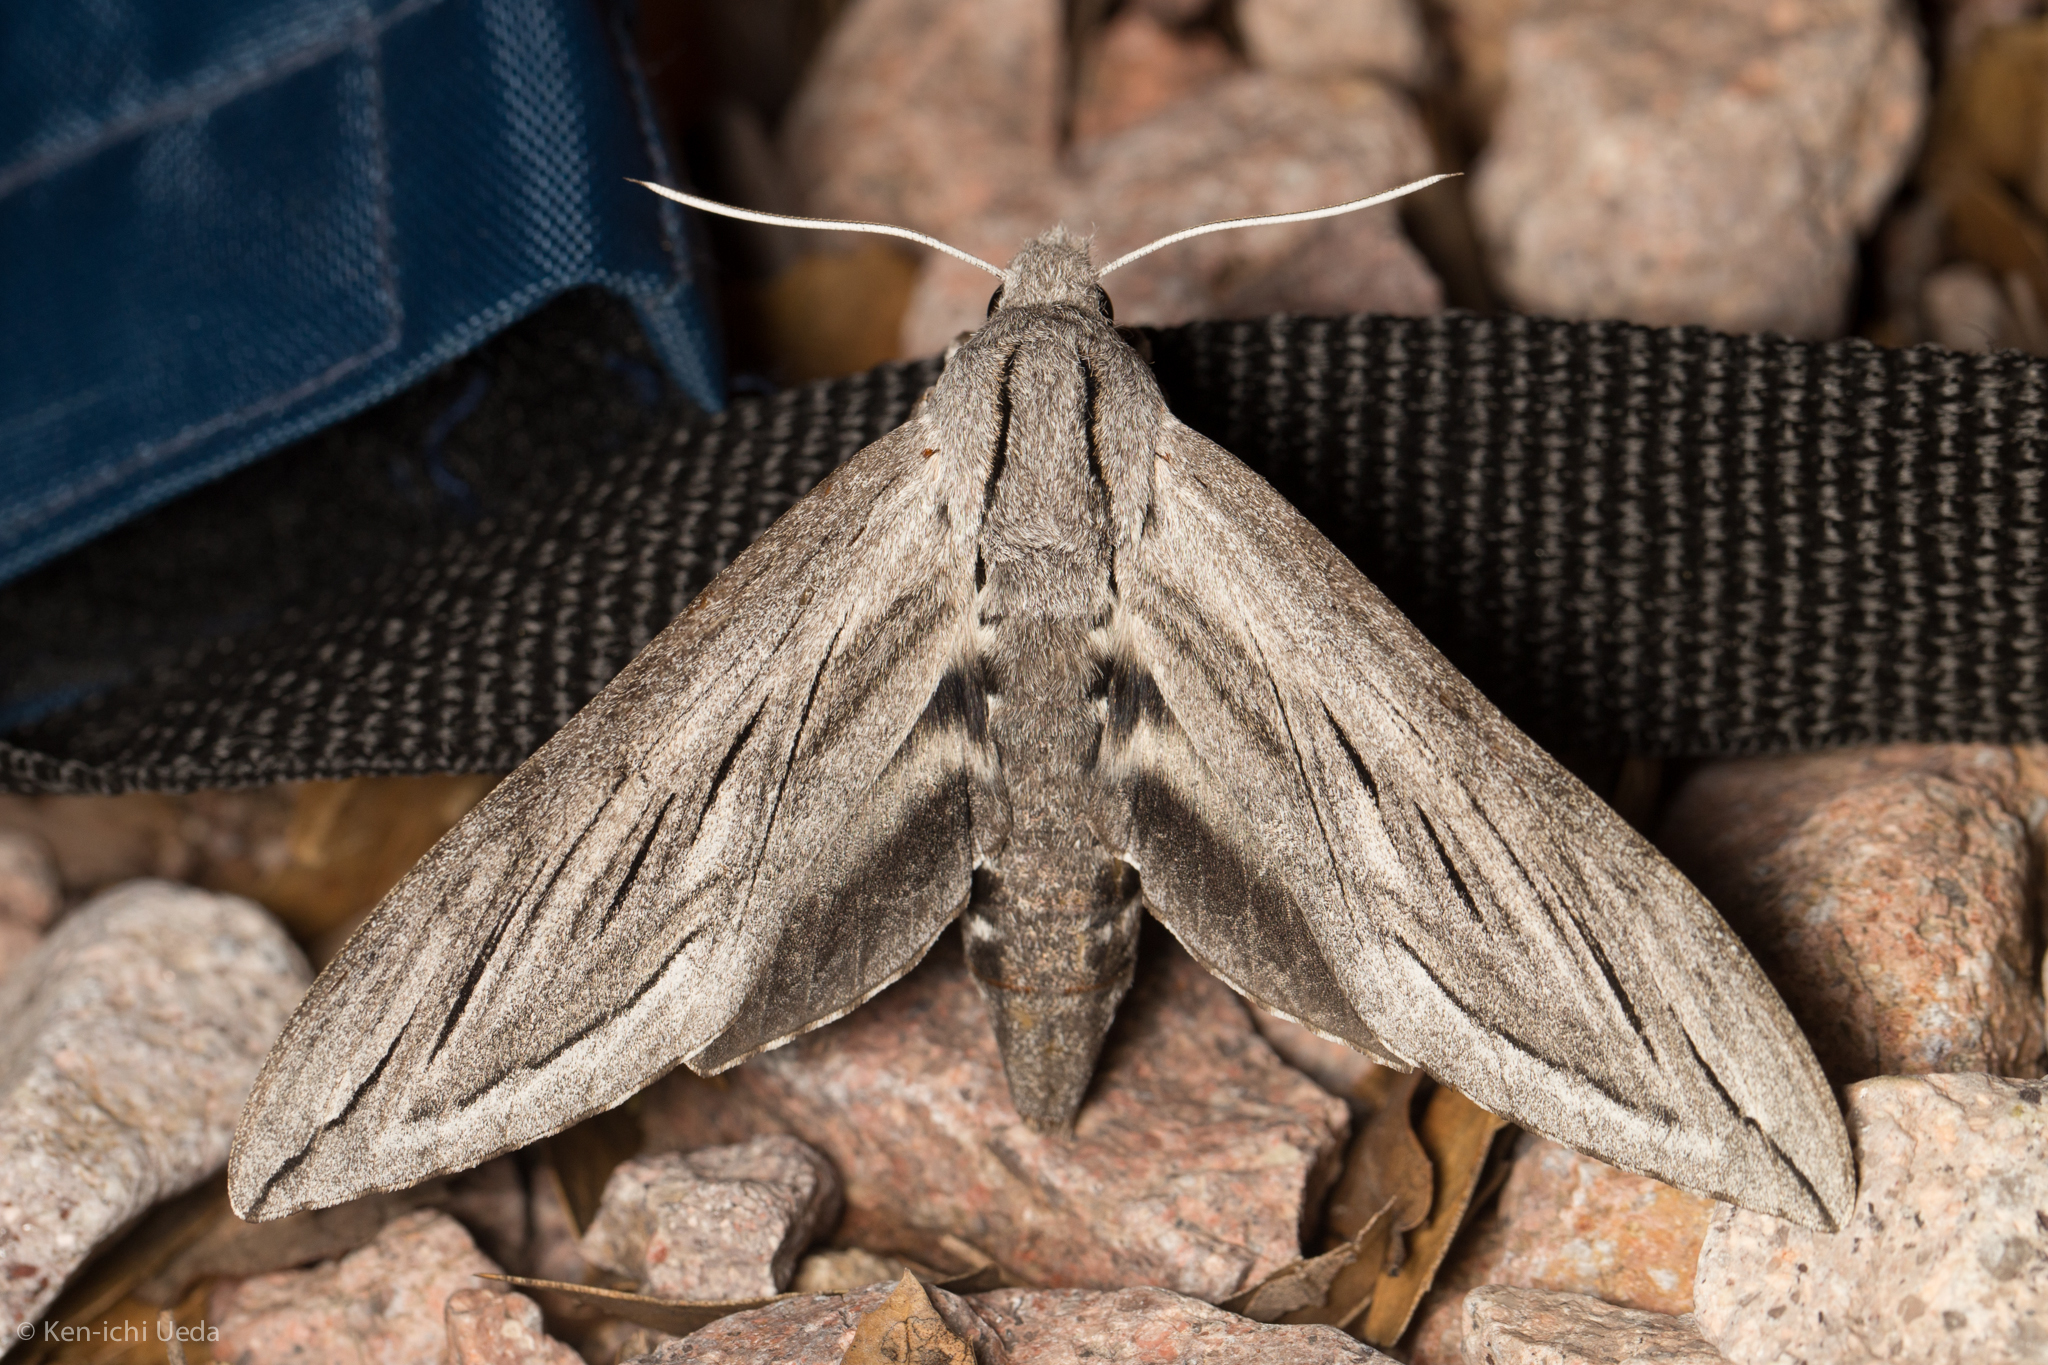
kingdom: Animalia
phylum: Arthropoda
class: Insecta
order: Lepidoptera
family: Sphingidae
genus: Sphinx
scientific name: Sphinx chersis
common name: Great ash sphinx
